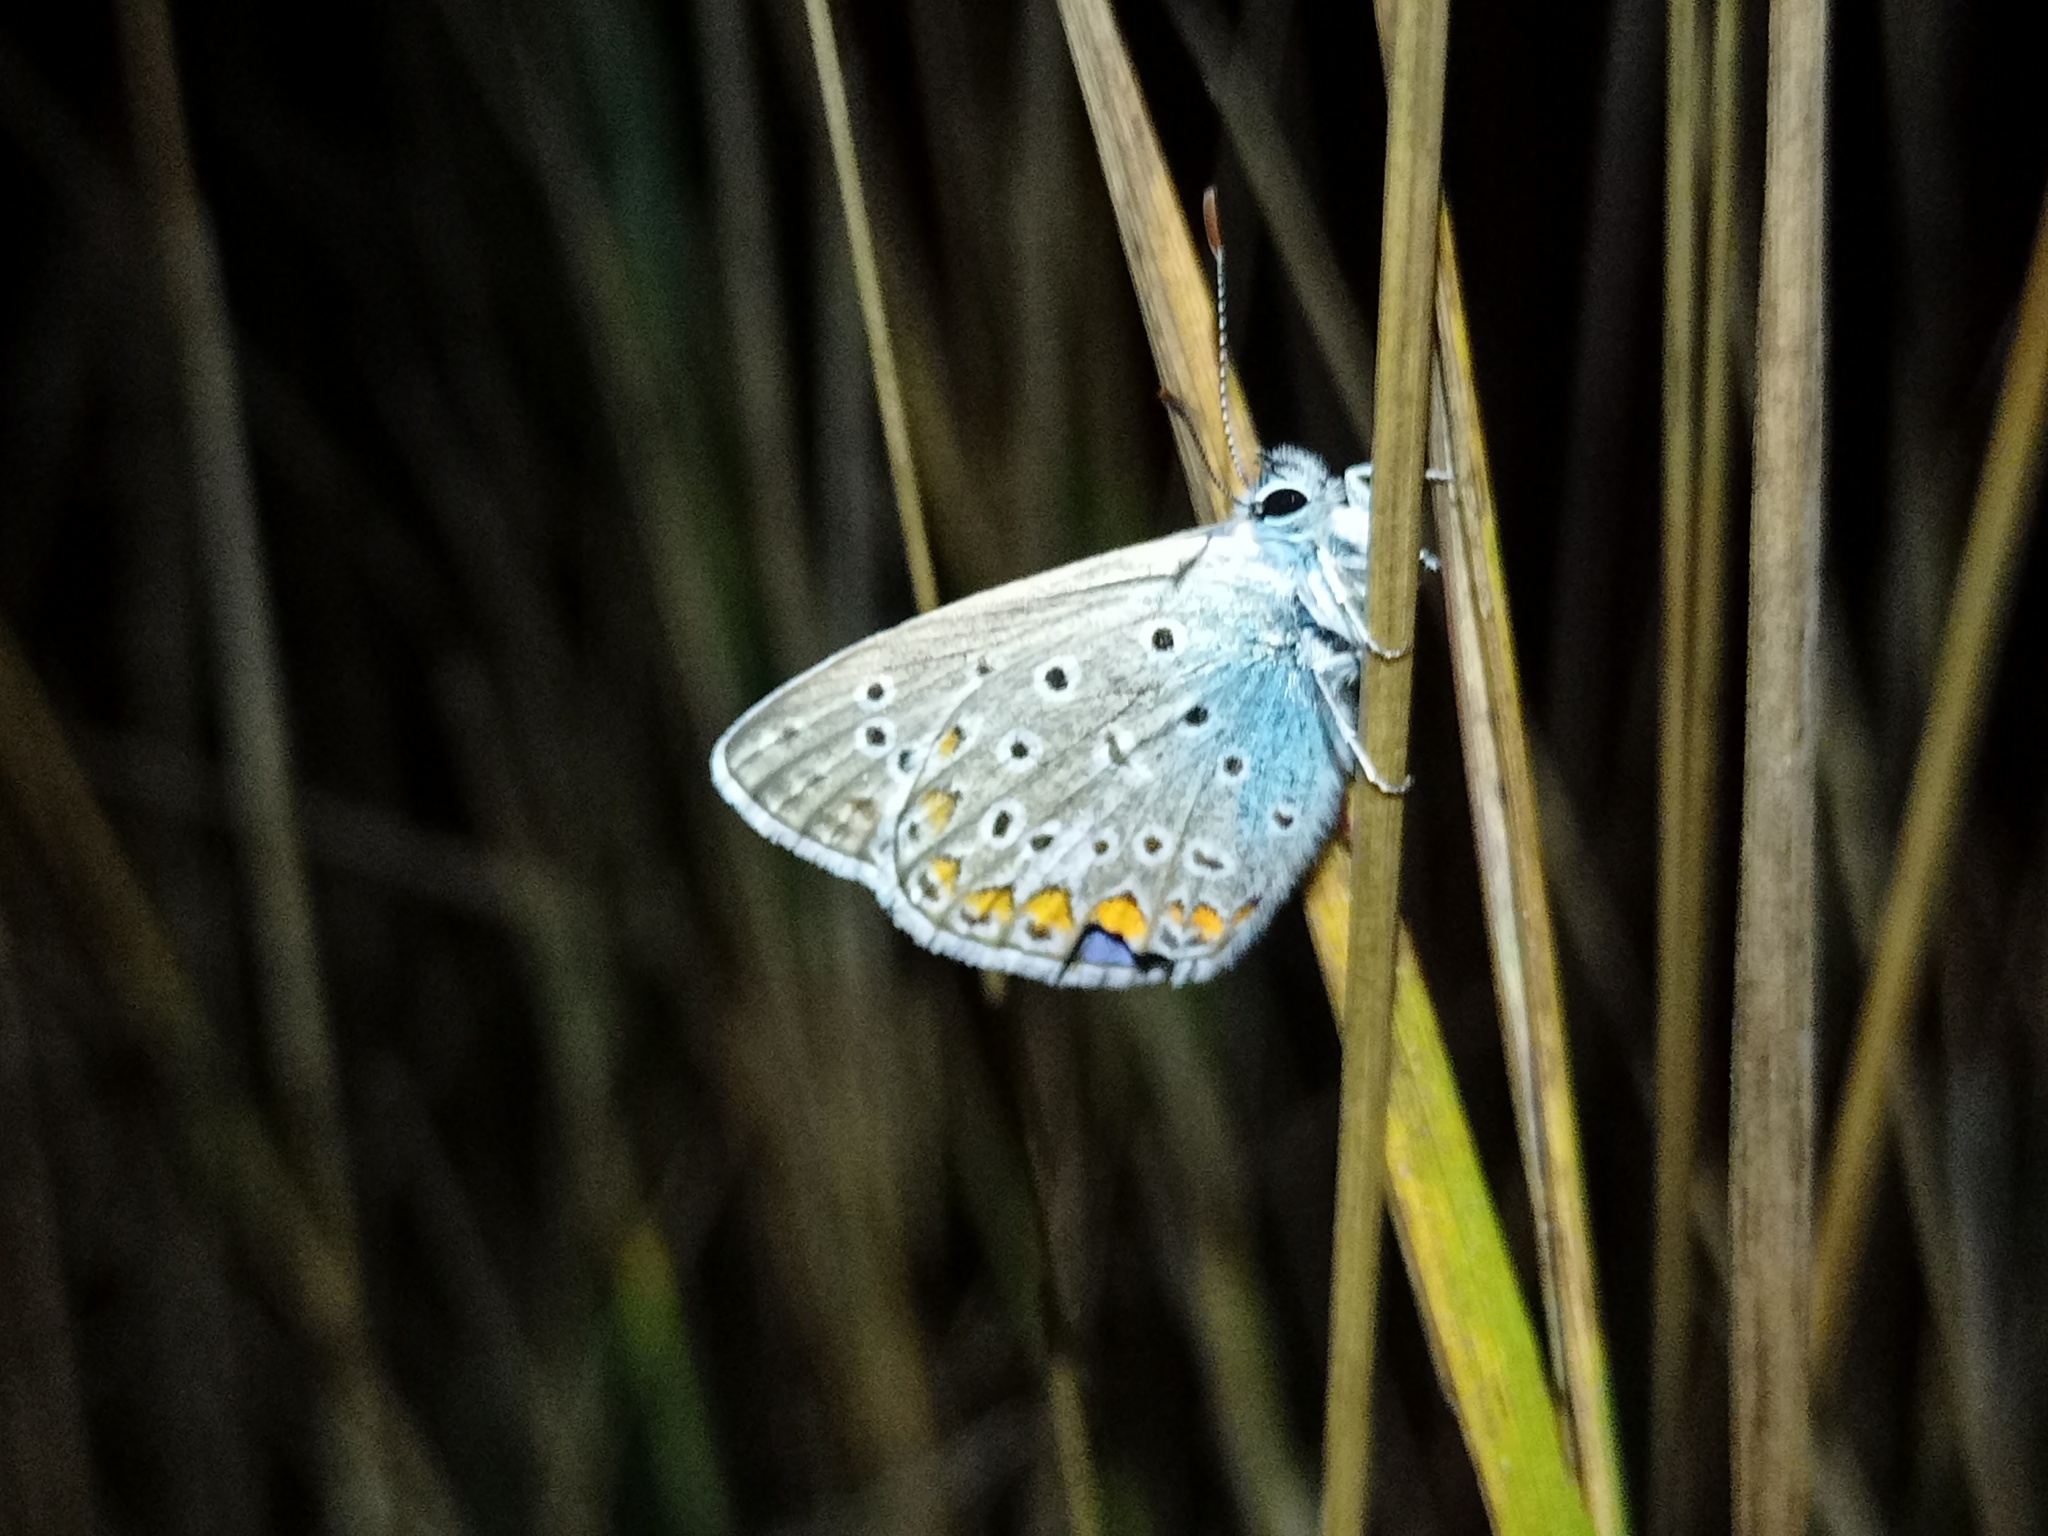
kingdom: Animalia
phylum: Arthropoda
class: Insecta
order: Lepidoptera
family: Lycaenidae
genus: Polyommatus
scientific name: Polyommatus icarus
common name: Common blue
